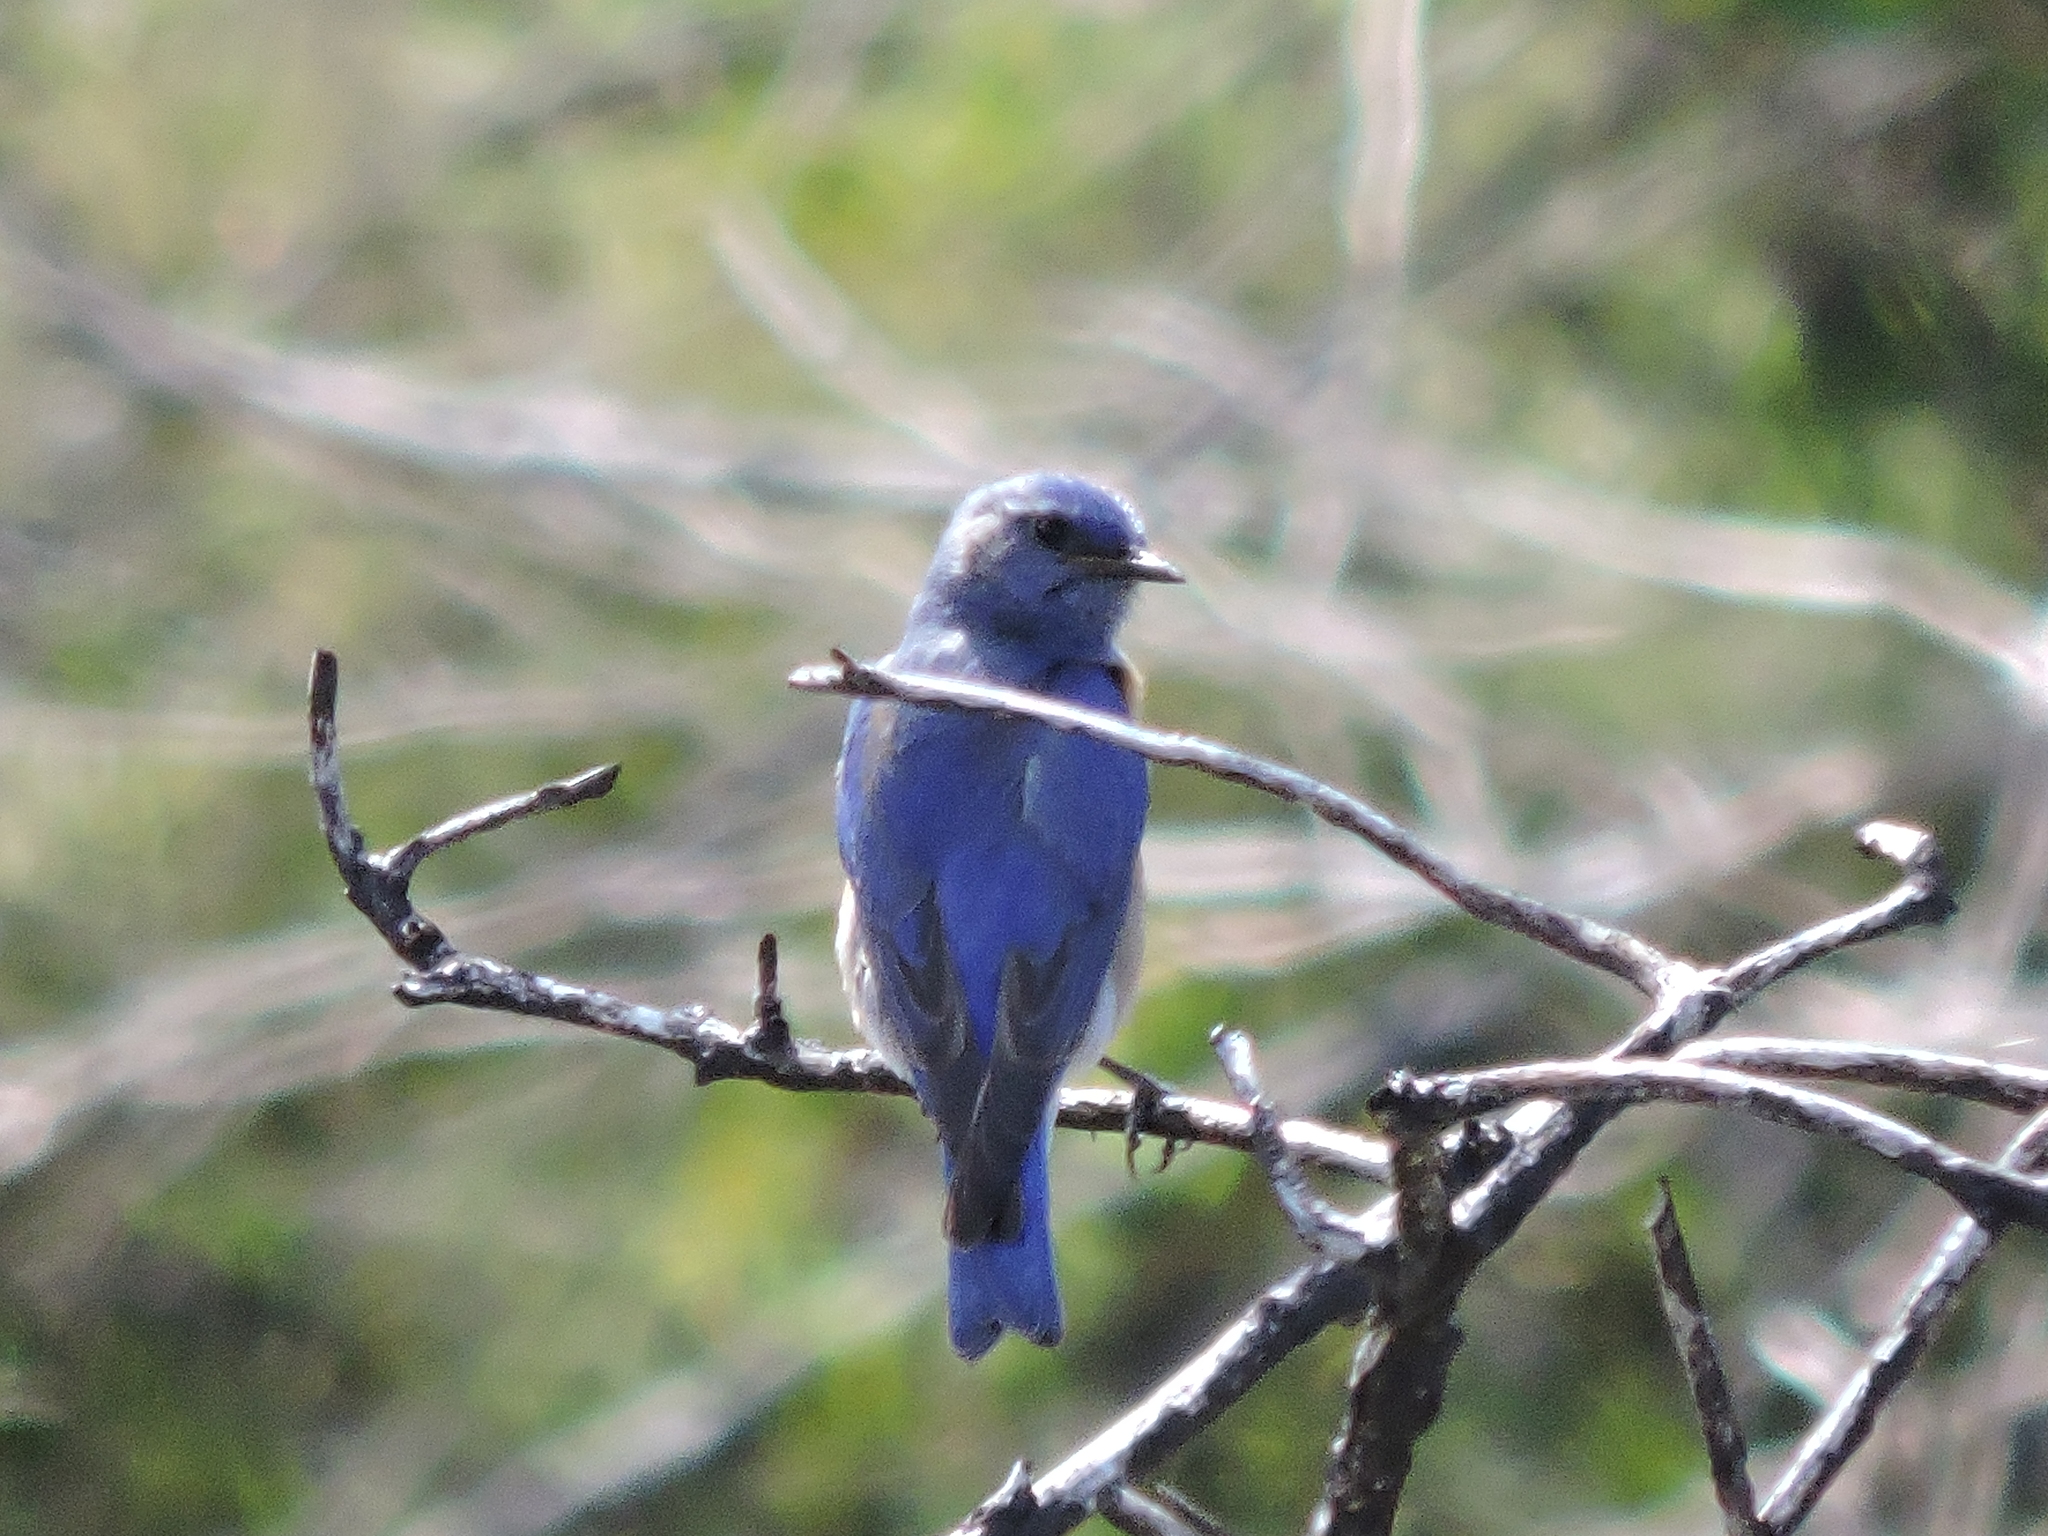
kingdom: Animalia
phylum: Chordata
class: Aves
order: Passeriformes
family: Turdidae
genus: Sialia
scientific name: Sialia mexicana
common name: Western bluebird
